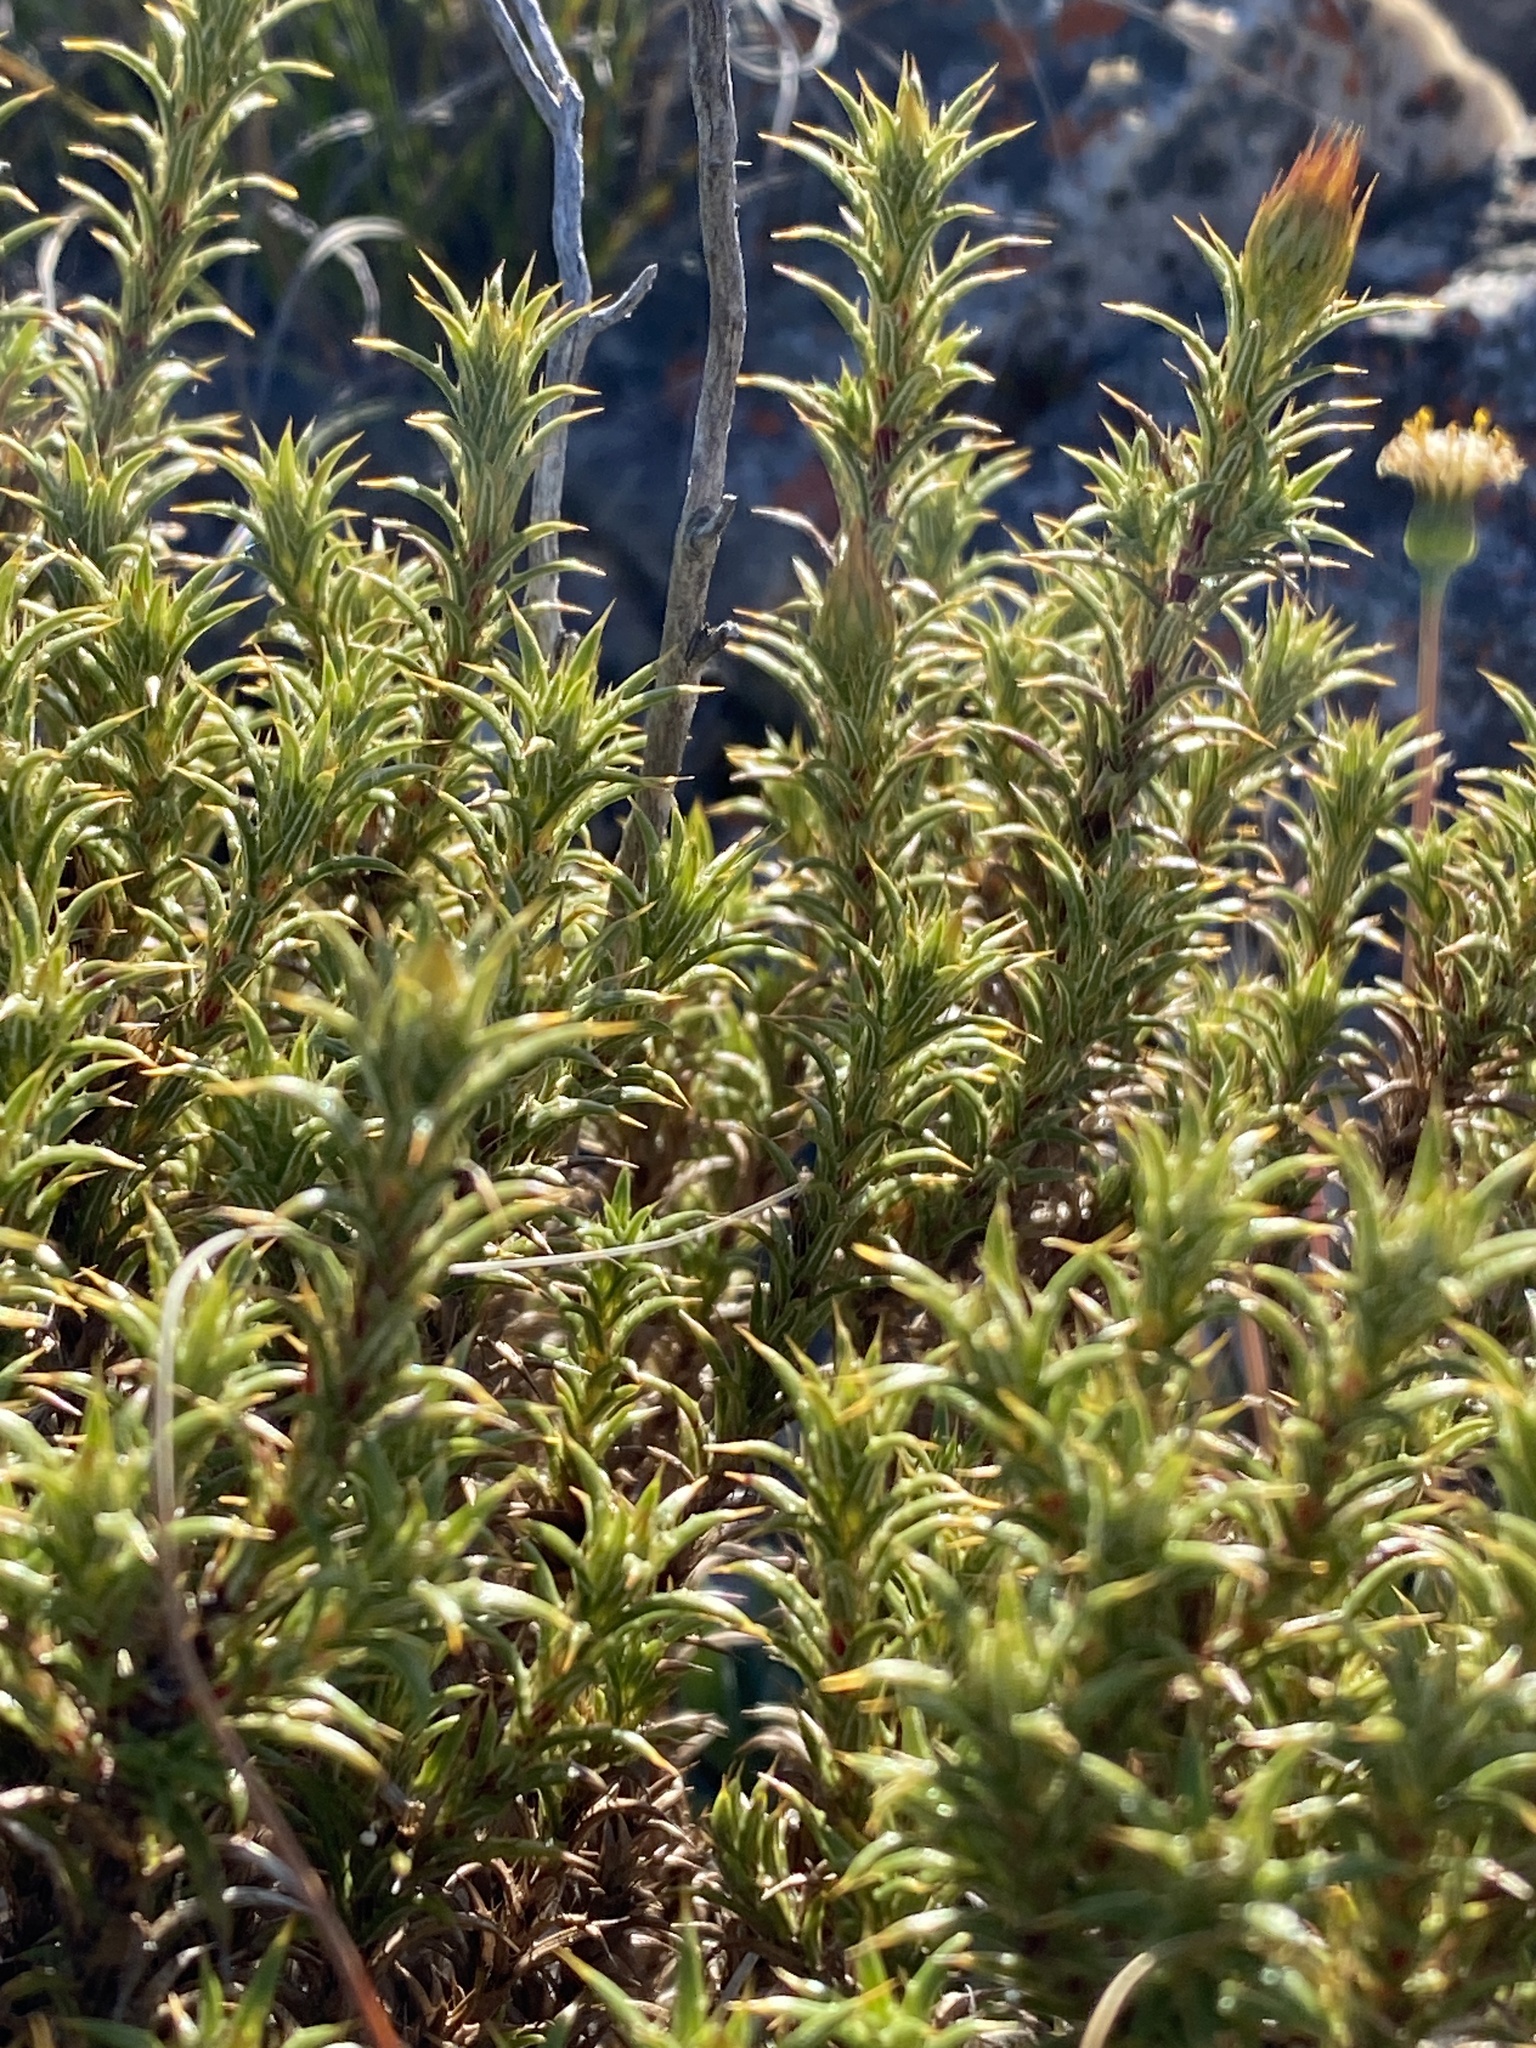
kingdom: Animalia
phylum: Arthropoda
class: Insecta
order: Blattodea
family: Blaberidae
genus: Aptera
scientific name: Aptera fusca
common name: Cape mountain cockroach
